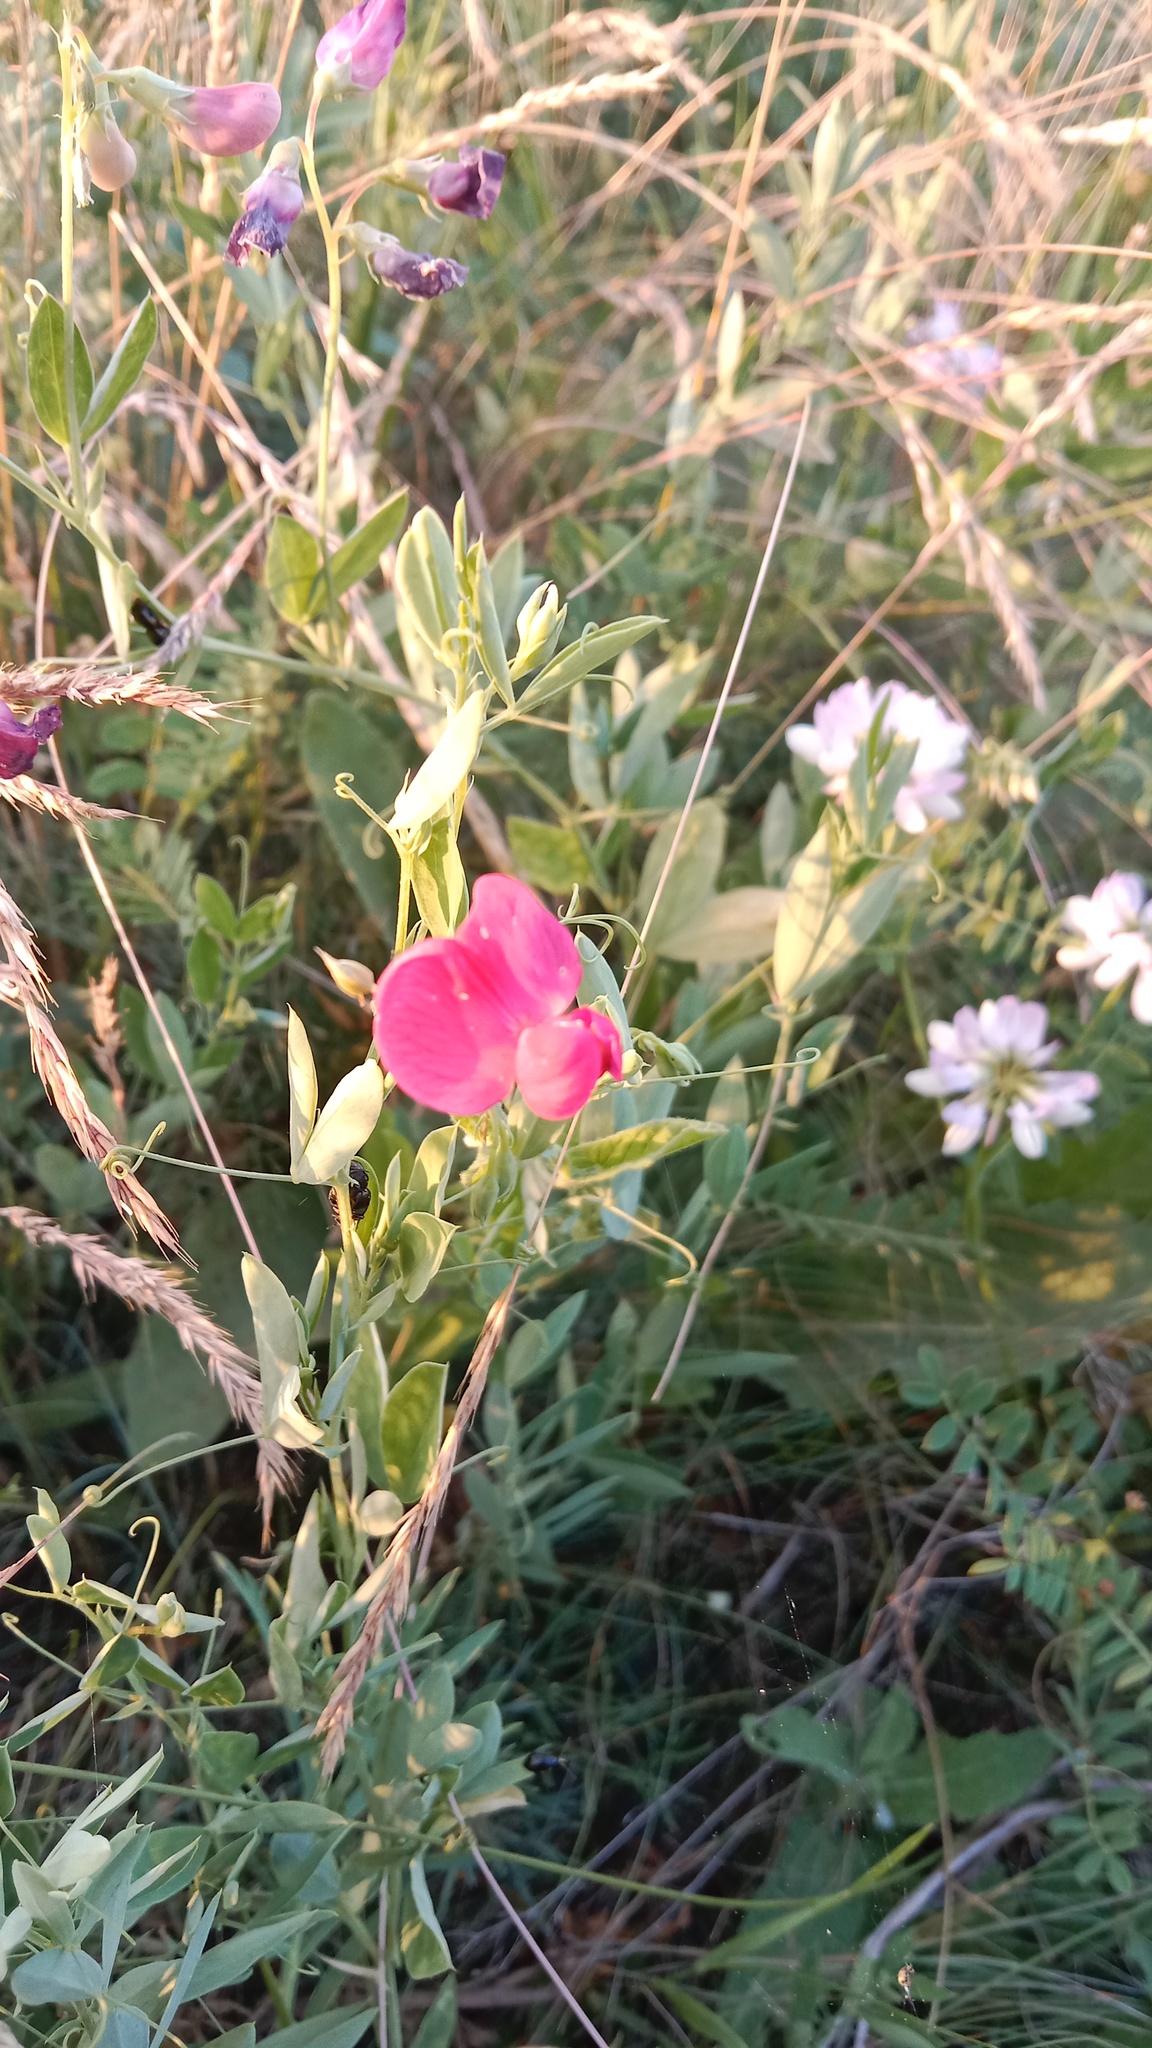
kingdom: Plantae
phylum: Tracheophyta
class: Magnoliopsida
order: Fabales
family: Fabaceae
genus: Lathyrus
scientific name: Lathyrus tuberosus
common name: Tuberous pea
